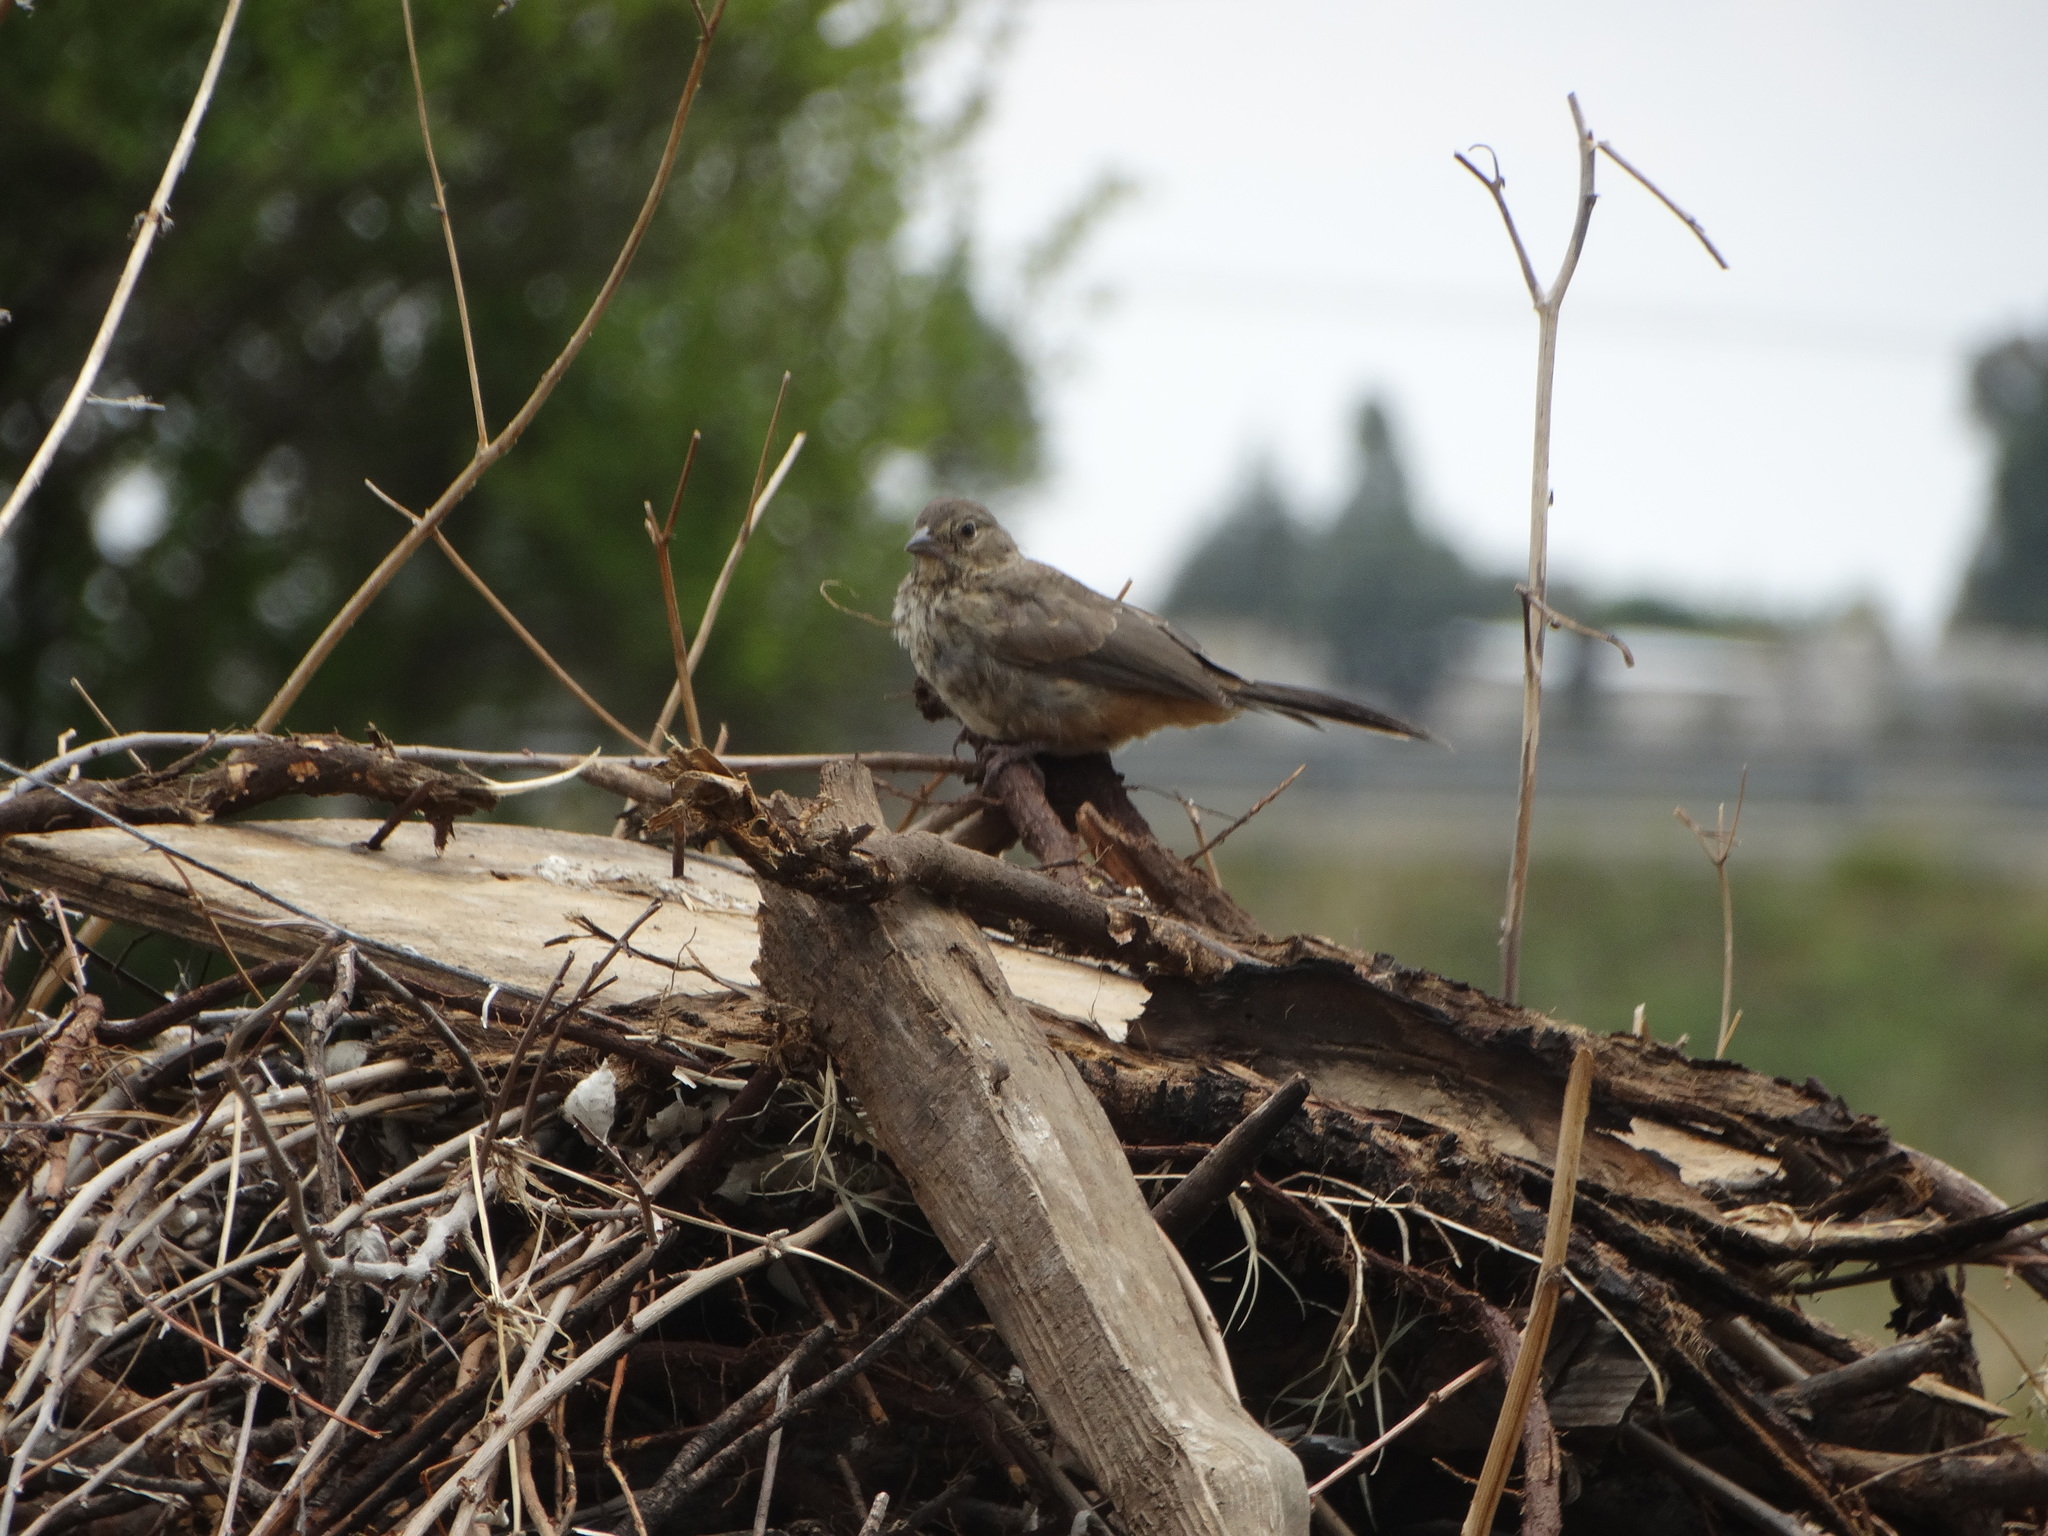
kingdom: Animalia
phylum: Chordata
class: Aves
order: Passeriformes
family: Passerellidae
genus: Melozone
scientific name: Melozone fusca
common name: Canyon towhee
